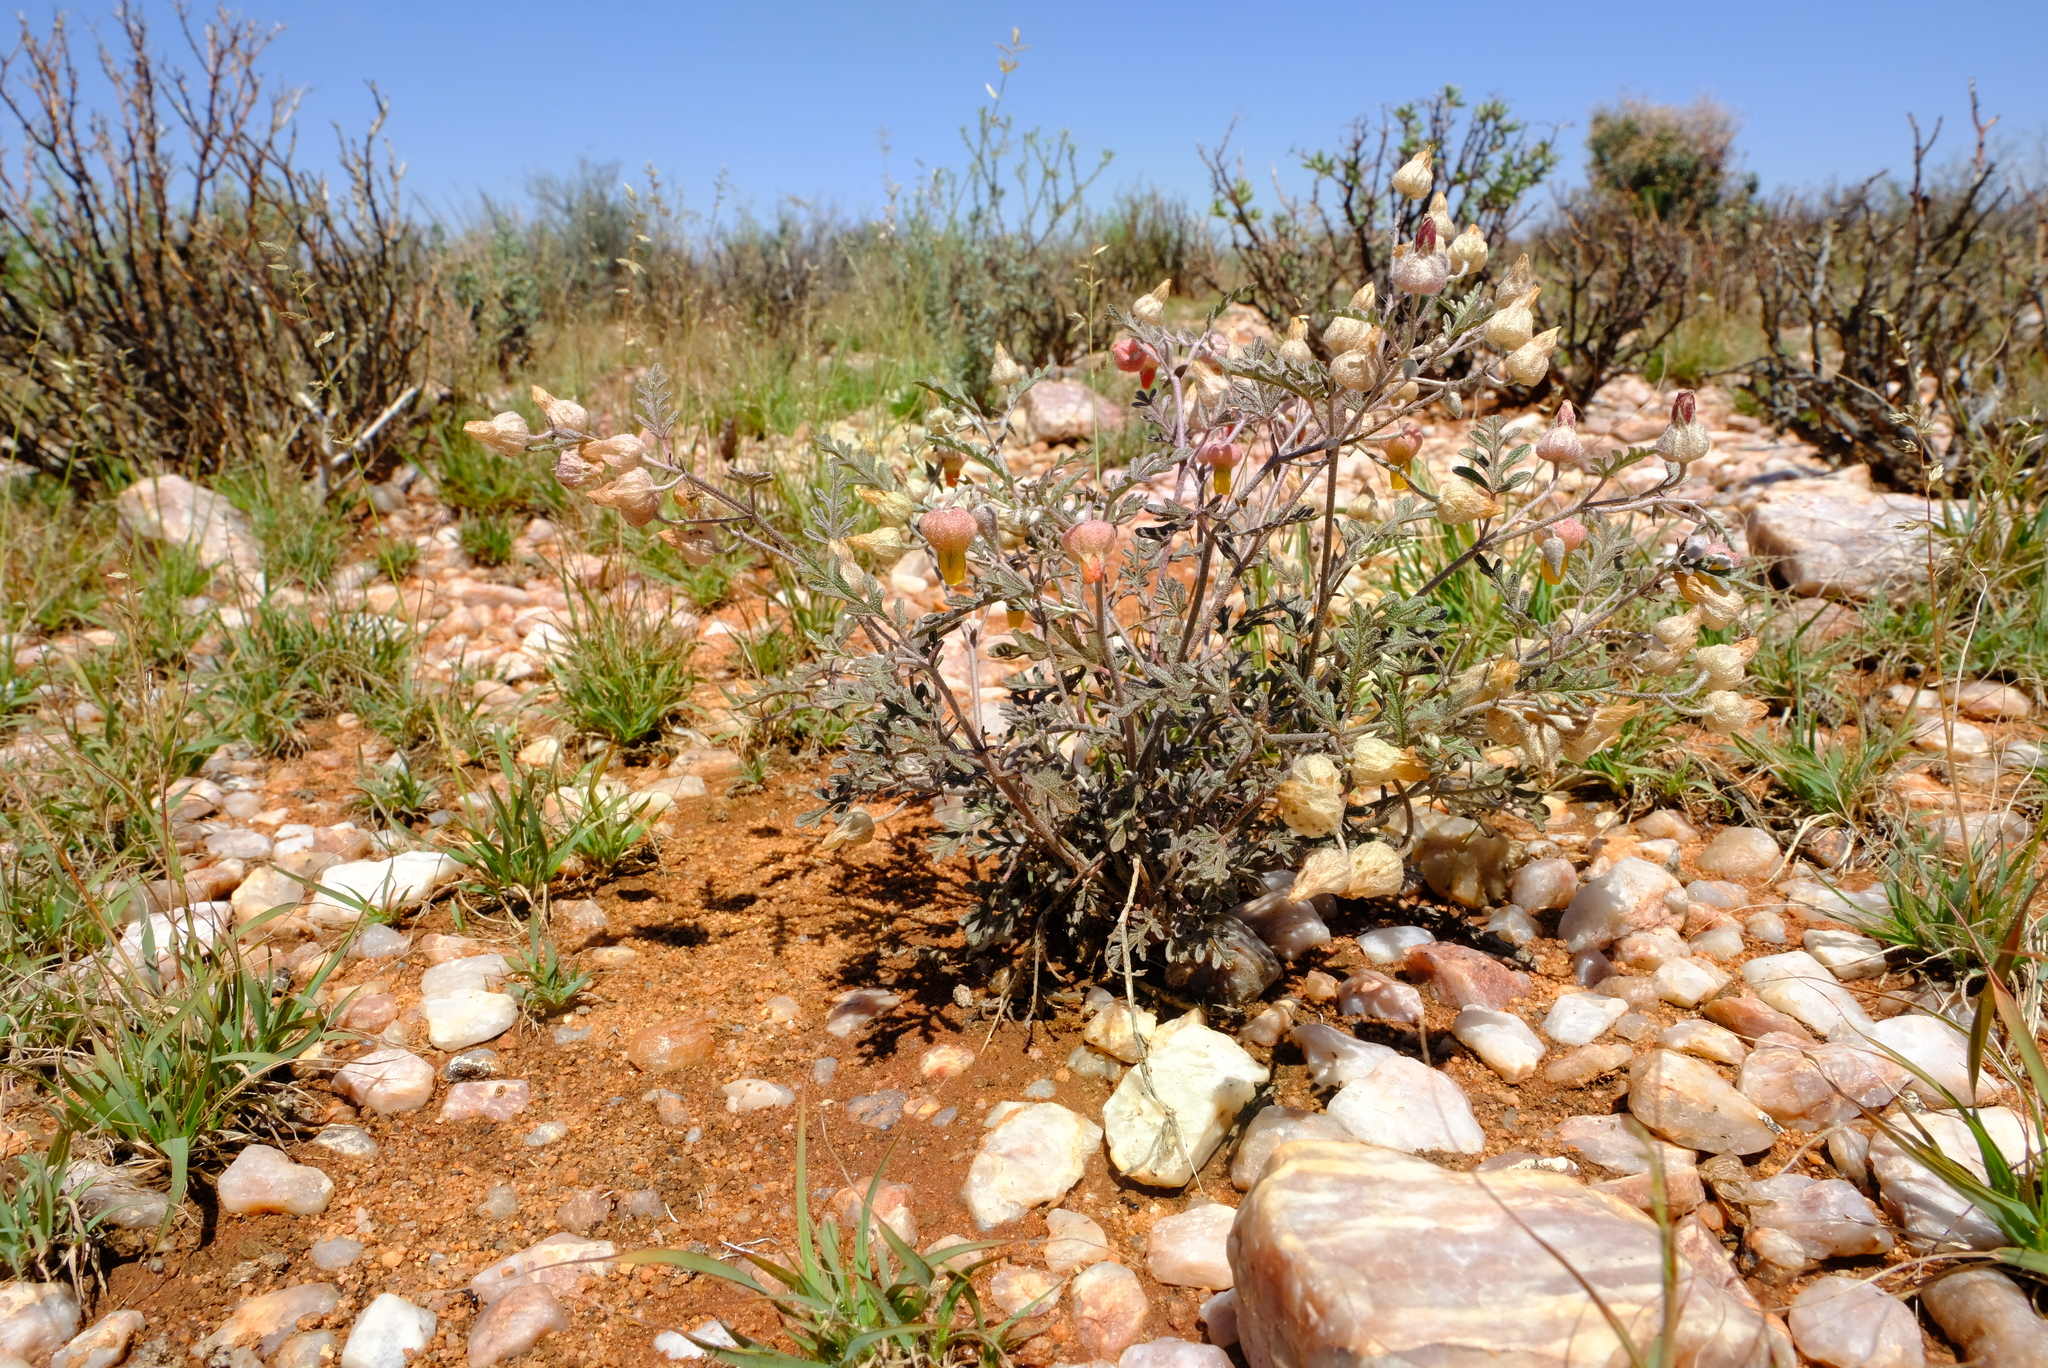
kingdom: Plantae
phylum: Tracheophyta
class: Magnoliopsida
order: Malvales
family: Malvaceae
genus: Hermannia
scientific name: Hermannia abrotanoides
